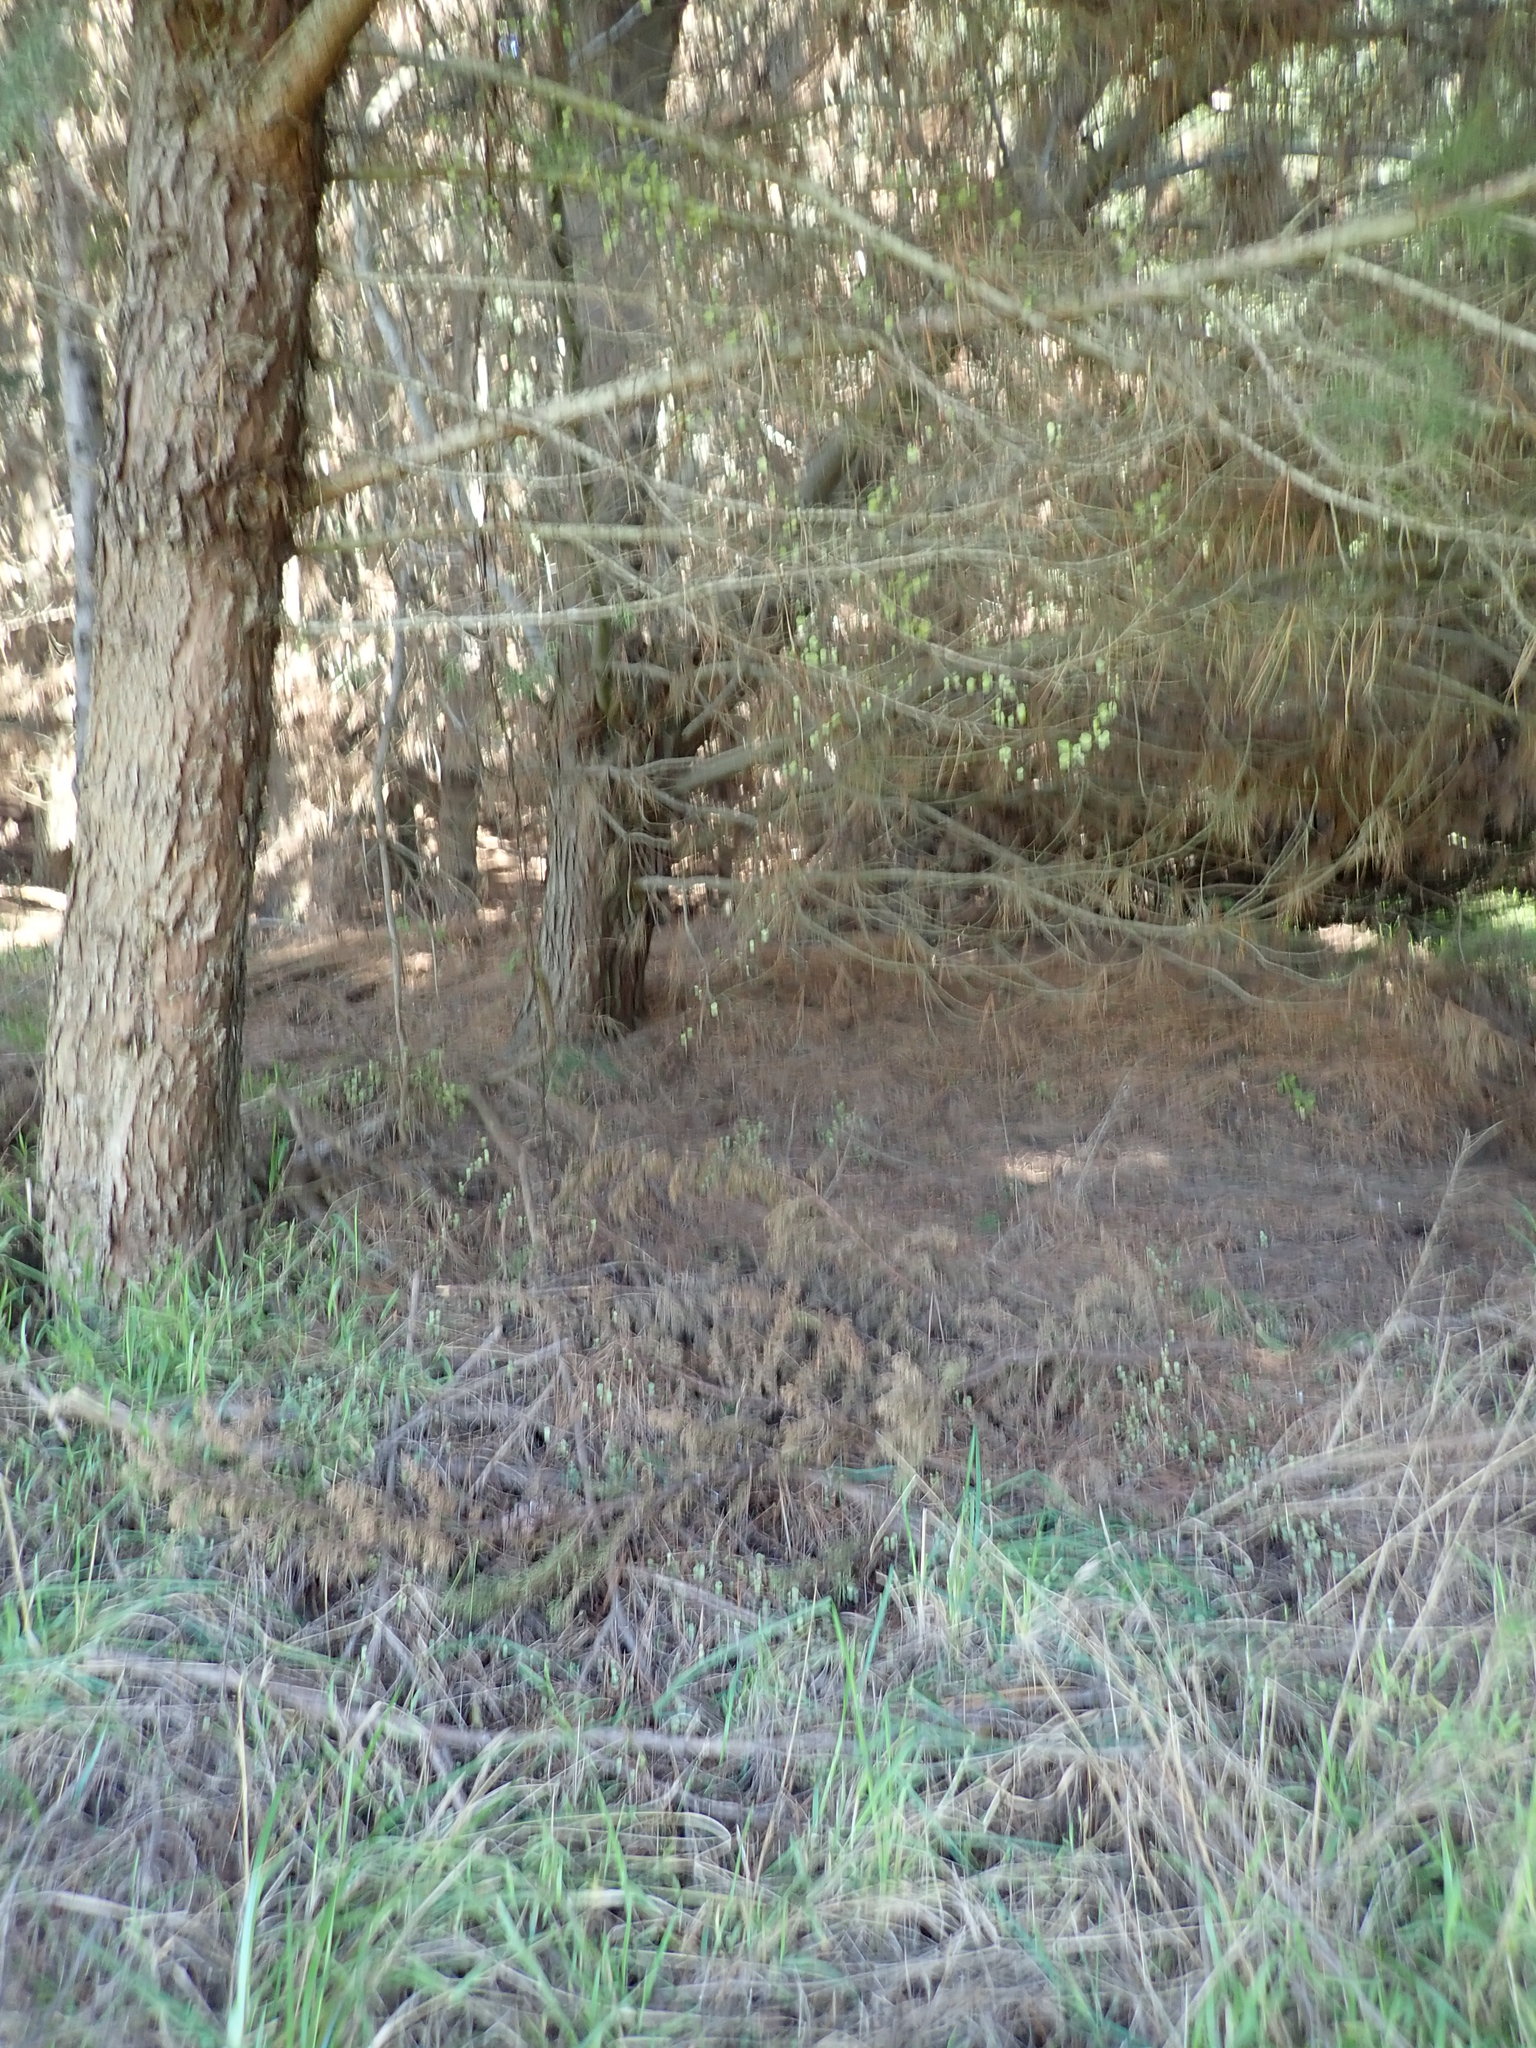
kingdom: Plantae
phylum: Tracheophyta
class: Magnoliopsida
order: Caryophyllales
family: Polygonaceae
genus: Muehlenbeckia
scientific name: Muehlenbeckia complexa
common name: Wireplant
